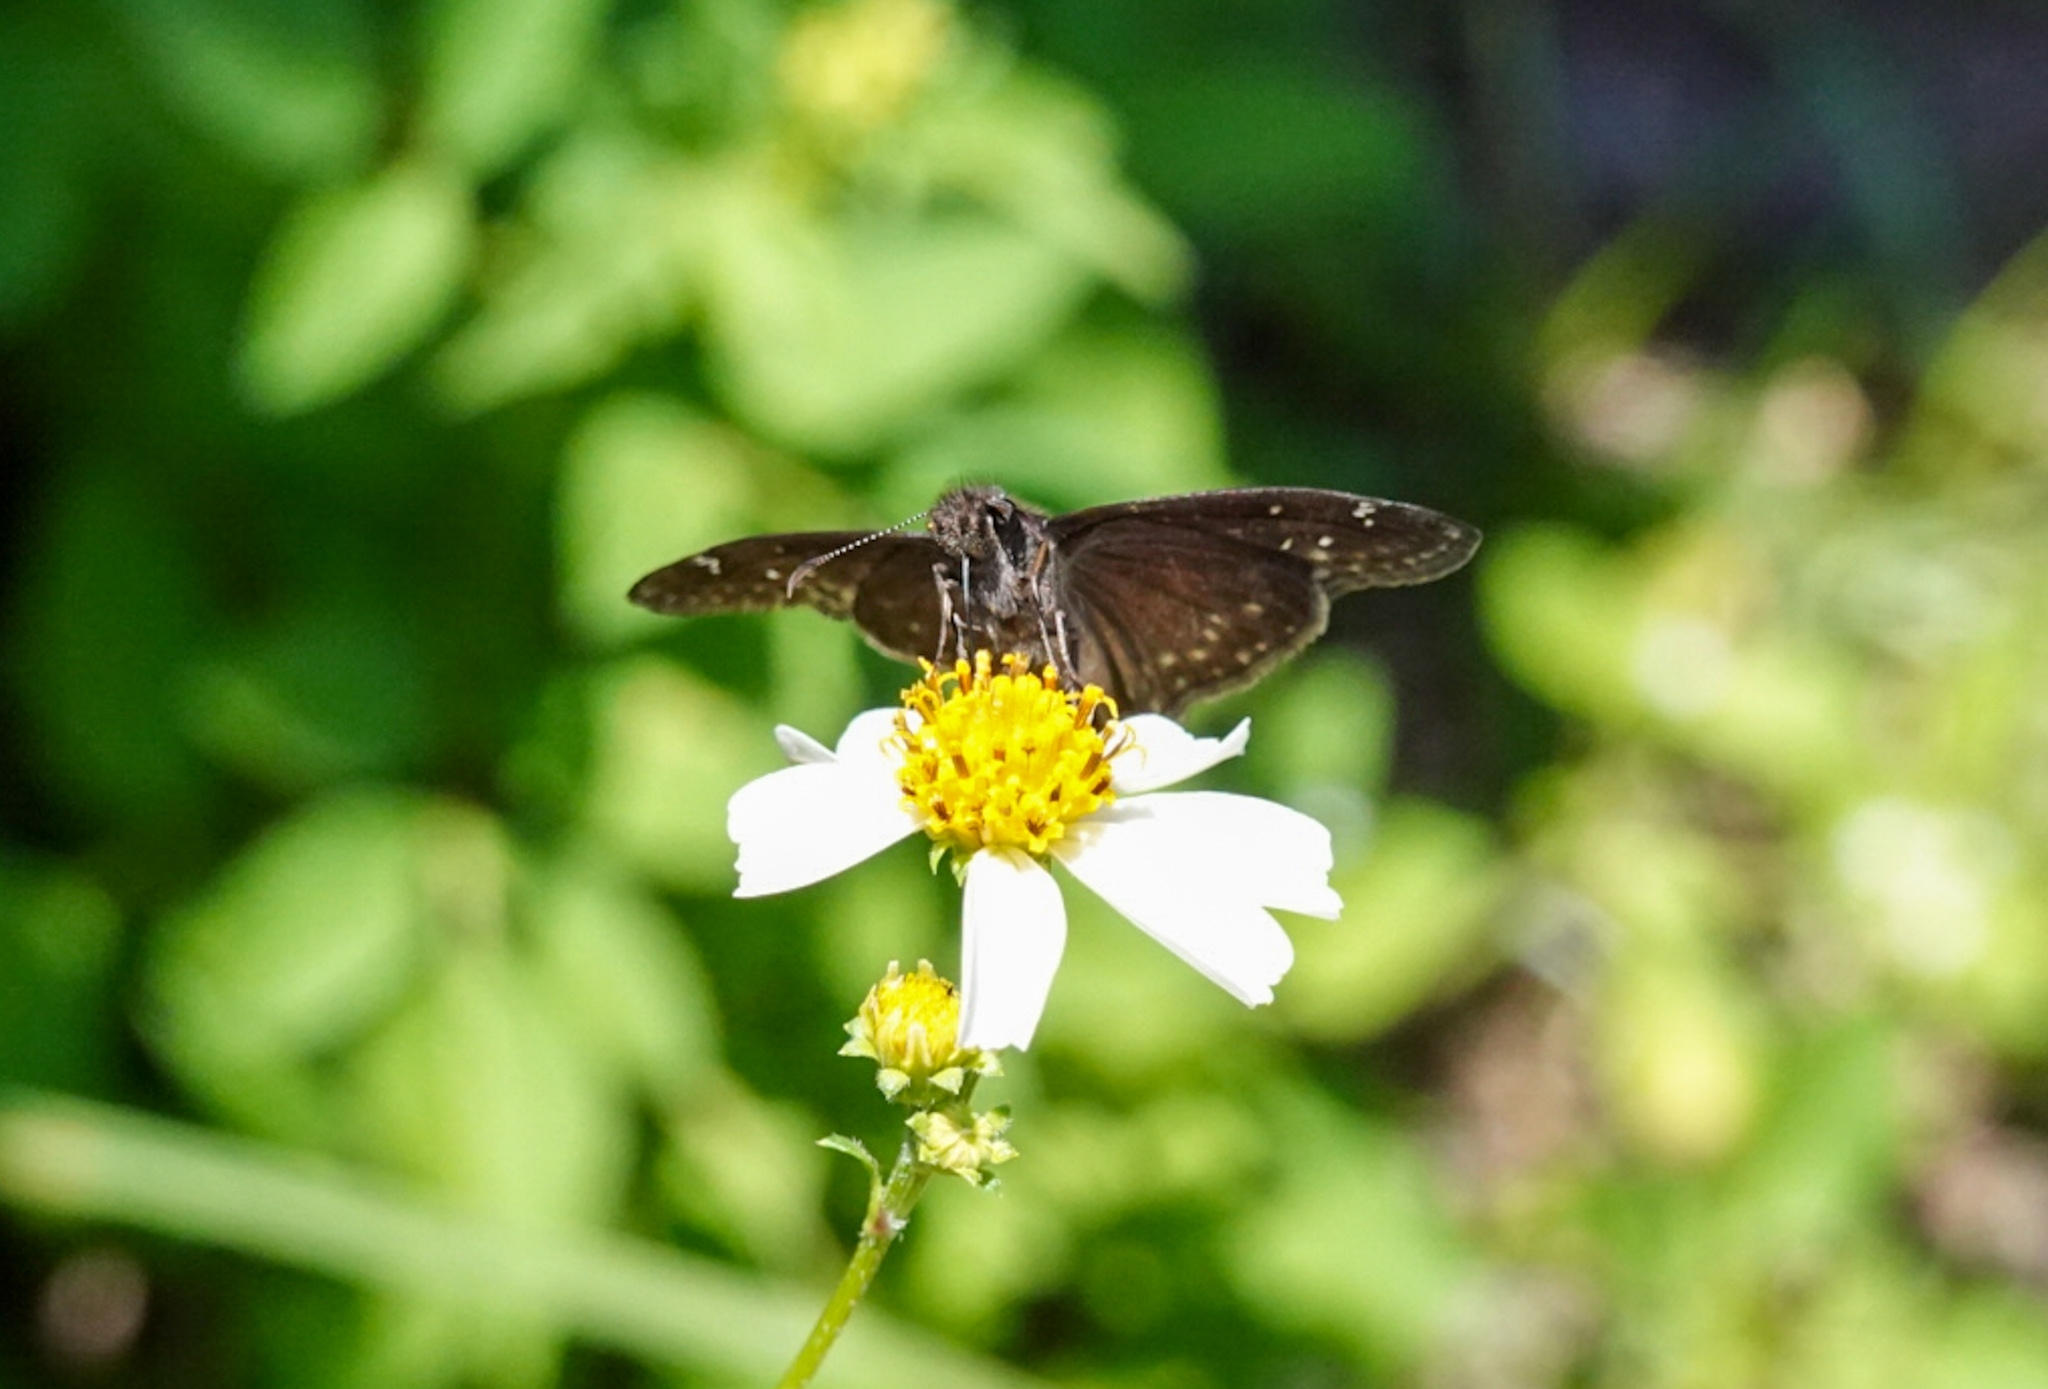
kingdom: Animalia
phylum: Arthropoda
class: Insecta
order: Lepidoptera
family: Hesperiidae
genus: Erynnis
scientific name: Erynnis zarucco
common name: Zarucco duskywing
